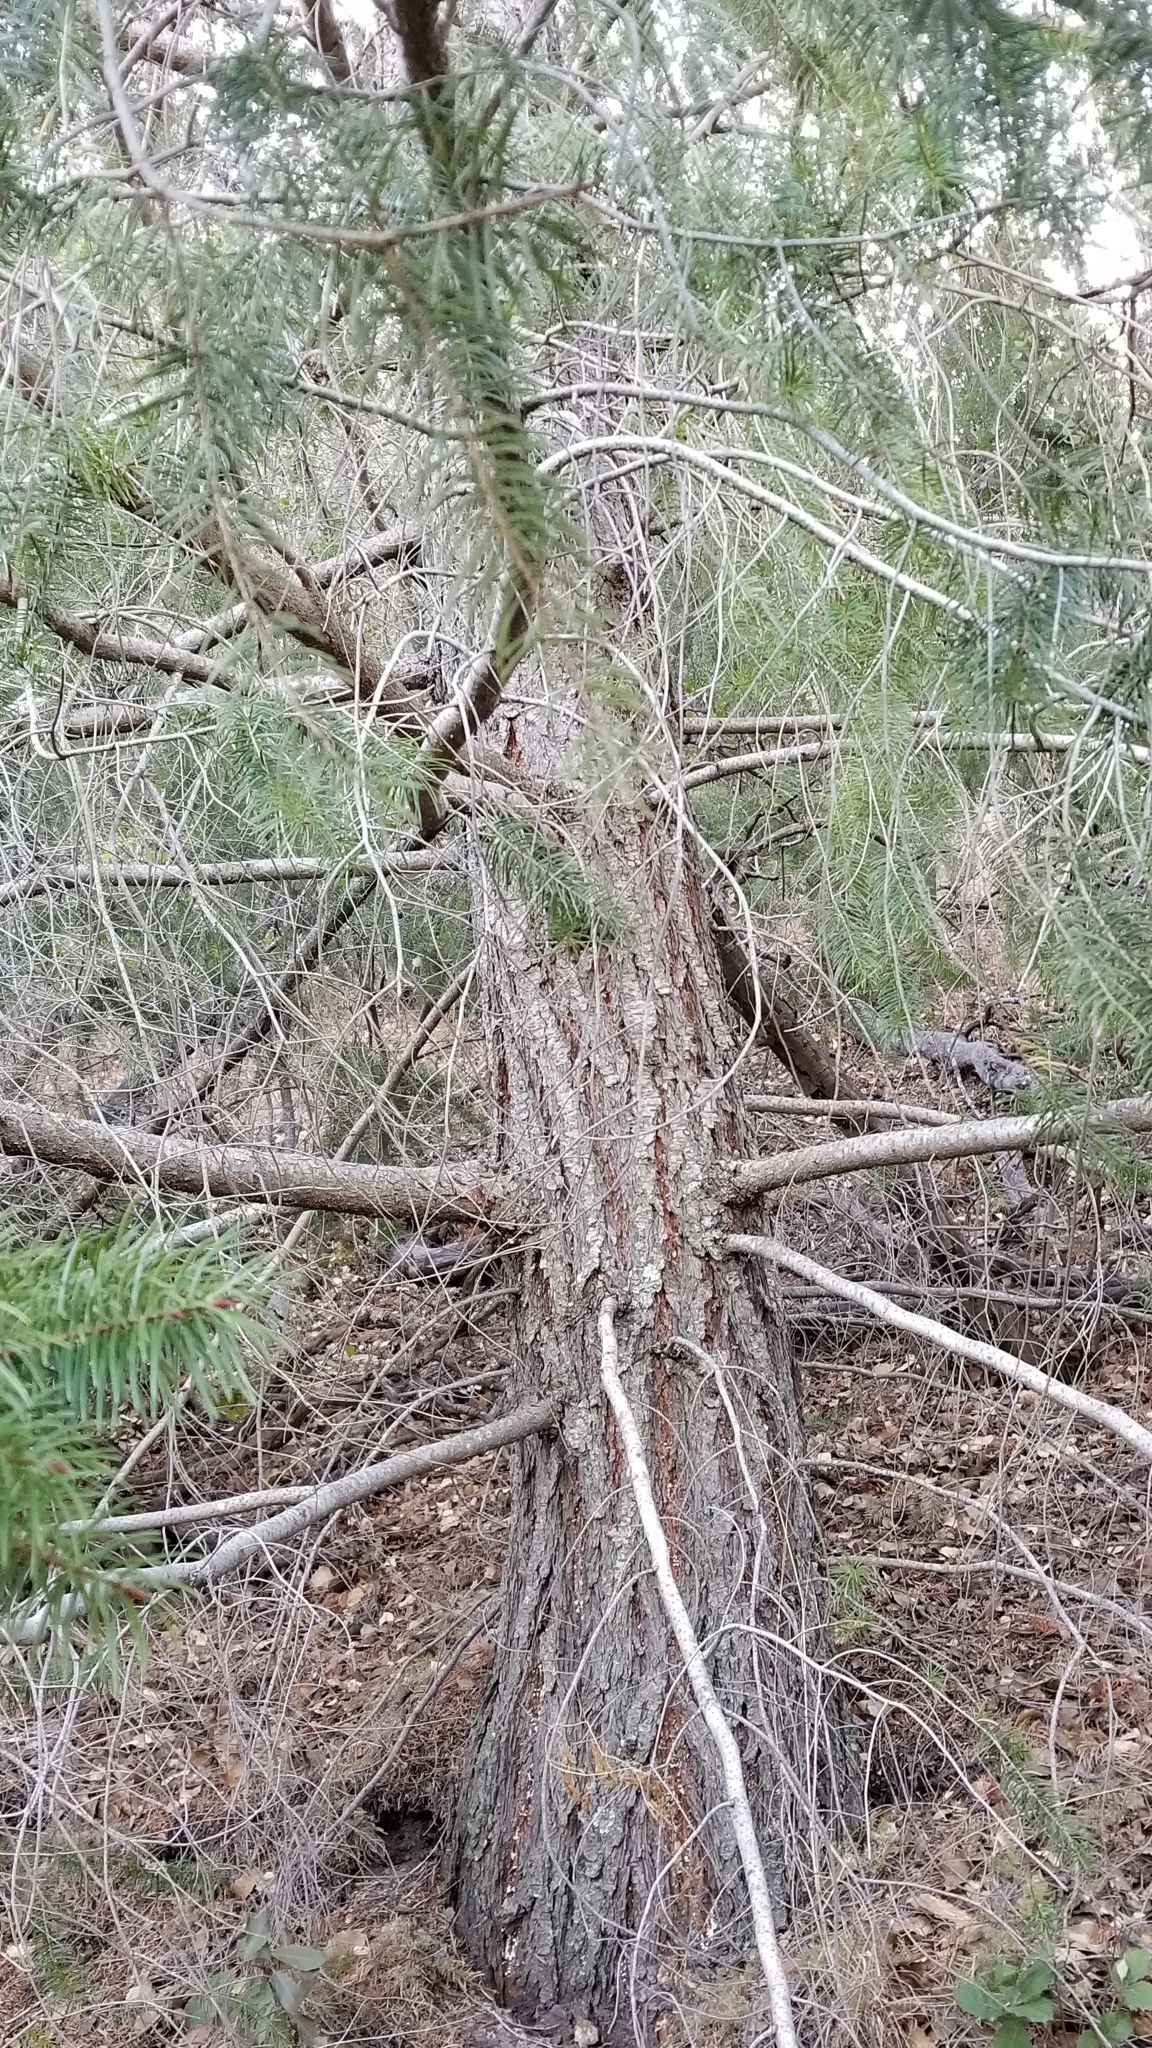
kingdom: Plantae
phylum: Tracheophyta
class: Pinopsida
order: Pinales
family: Pinaceae
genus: Pseudotsuga
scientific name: Pseudotsuga macrocarpa
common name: Big-cone douglas-fir
